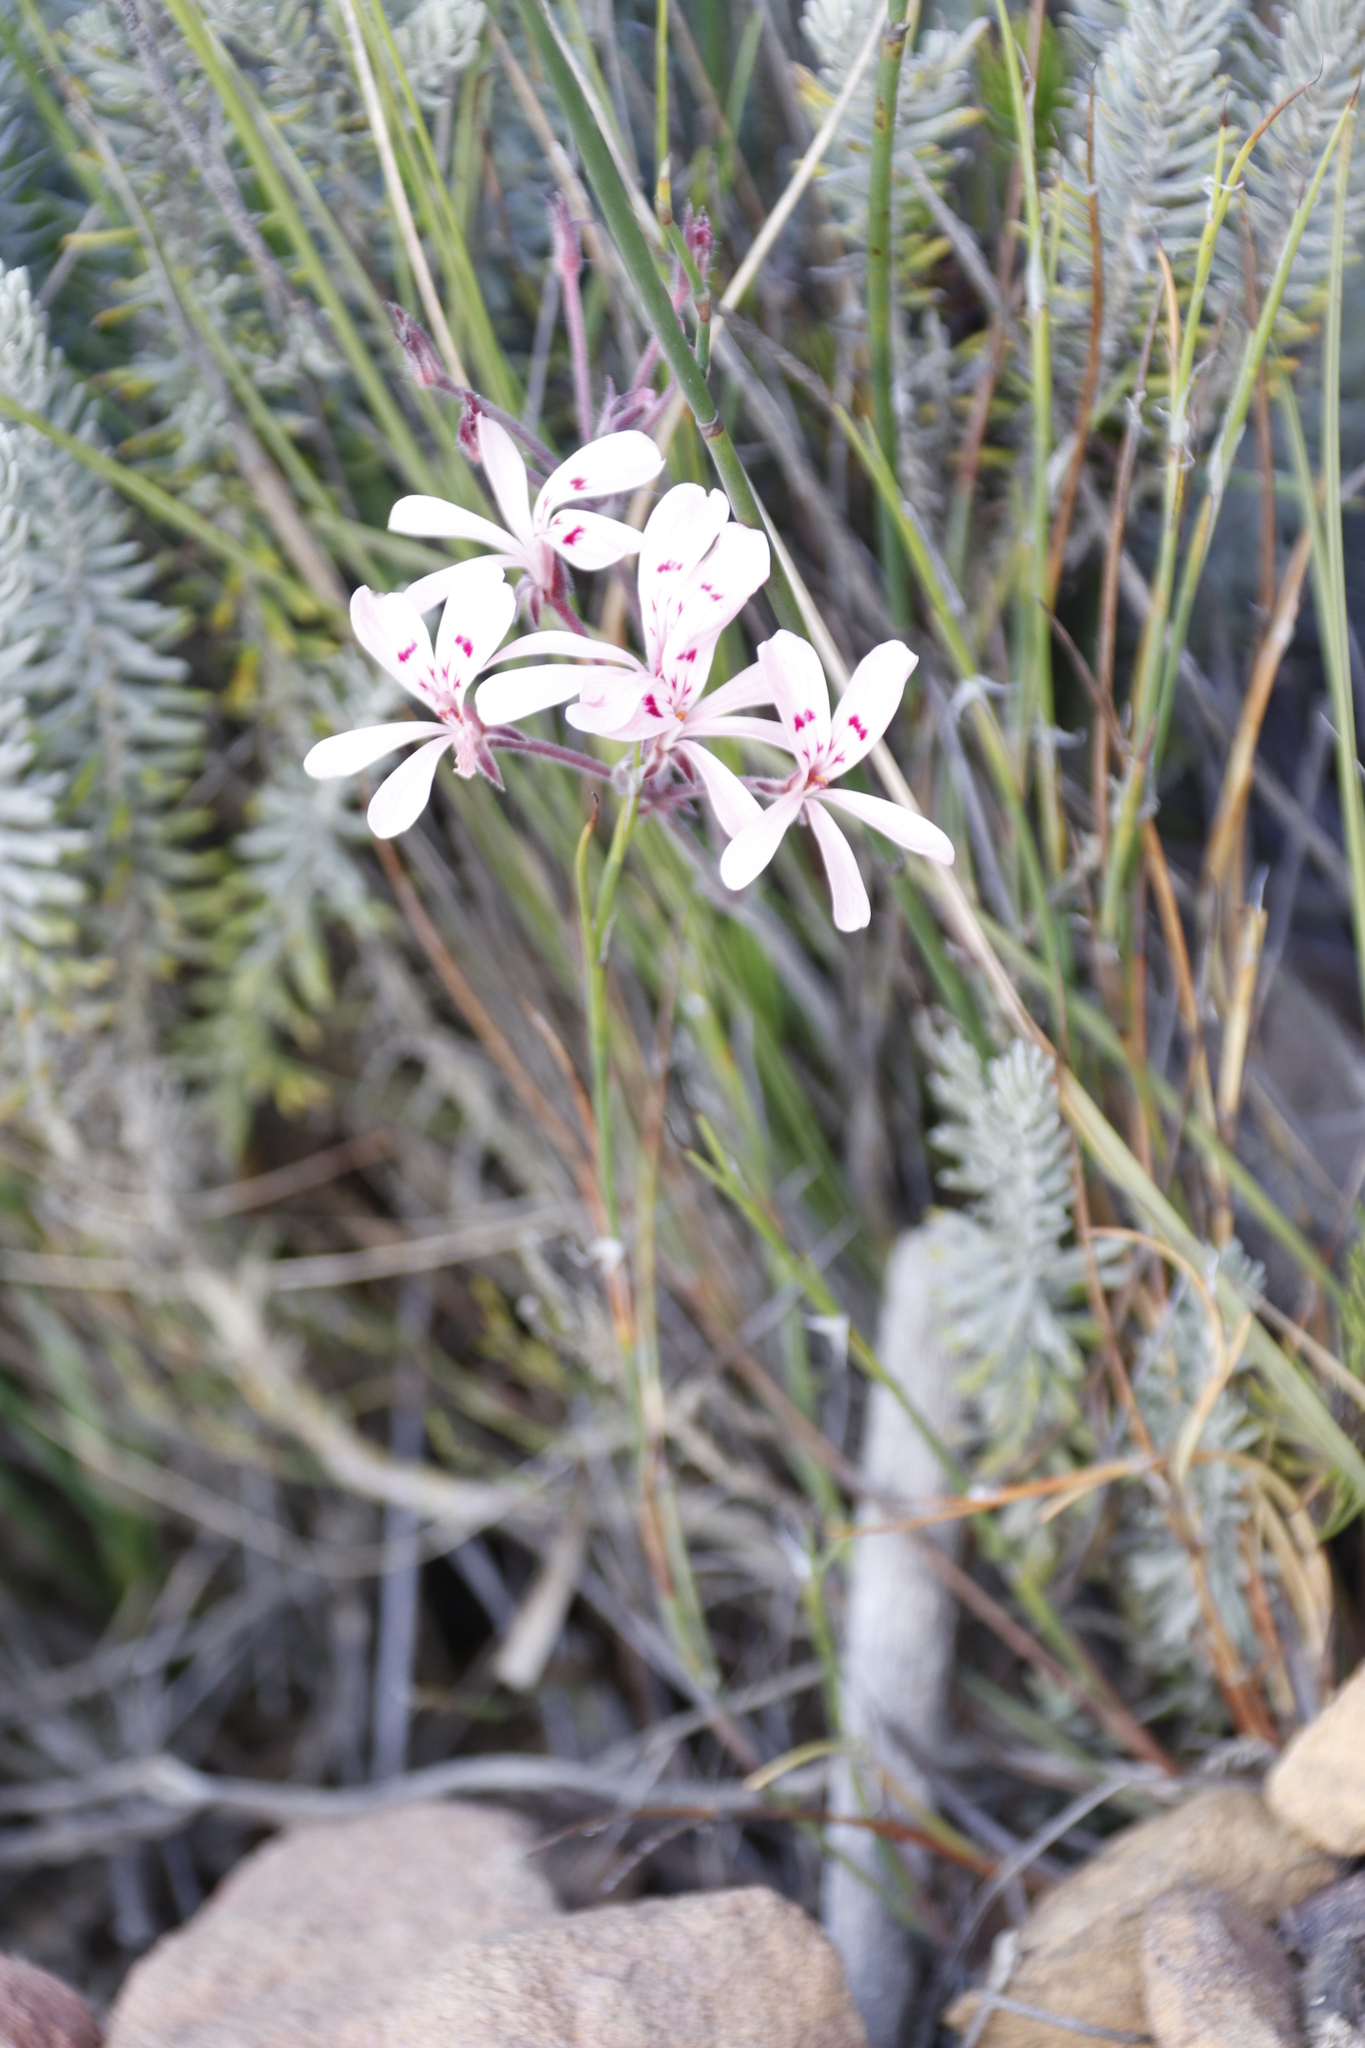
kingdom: Plantae
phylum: Tracheophyta
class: Magnoliopsida
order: Geraniales
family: Geraniaceae
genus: Pelargonium
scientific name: Pelargonium pinnatum
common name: Pinnated pelargonium
